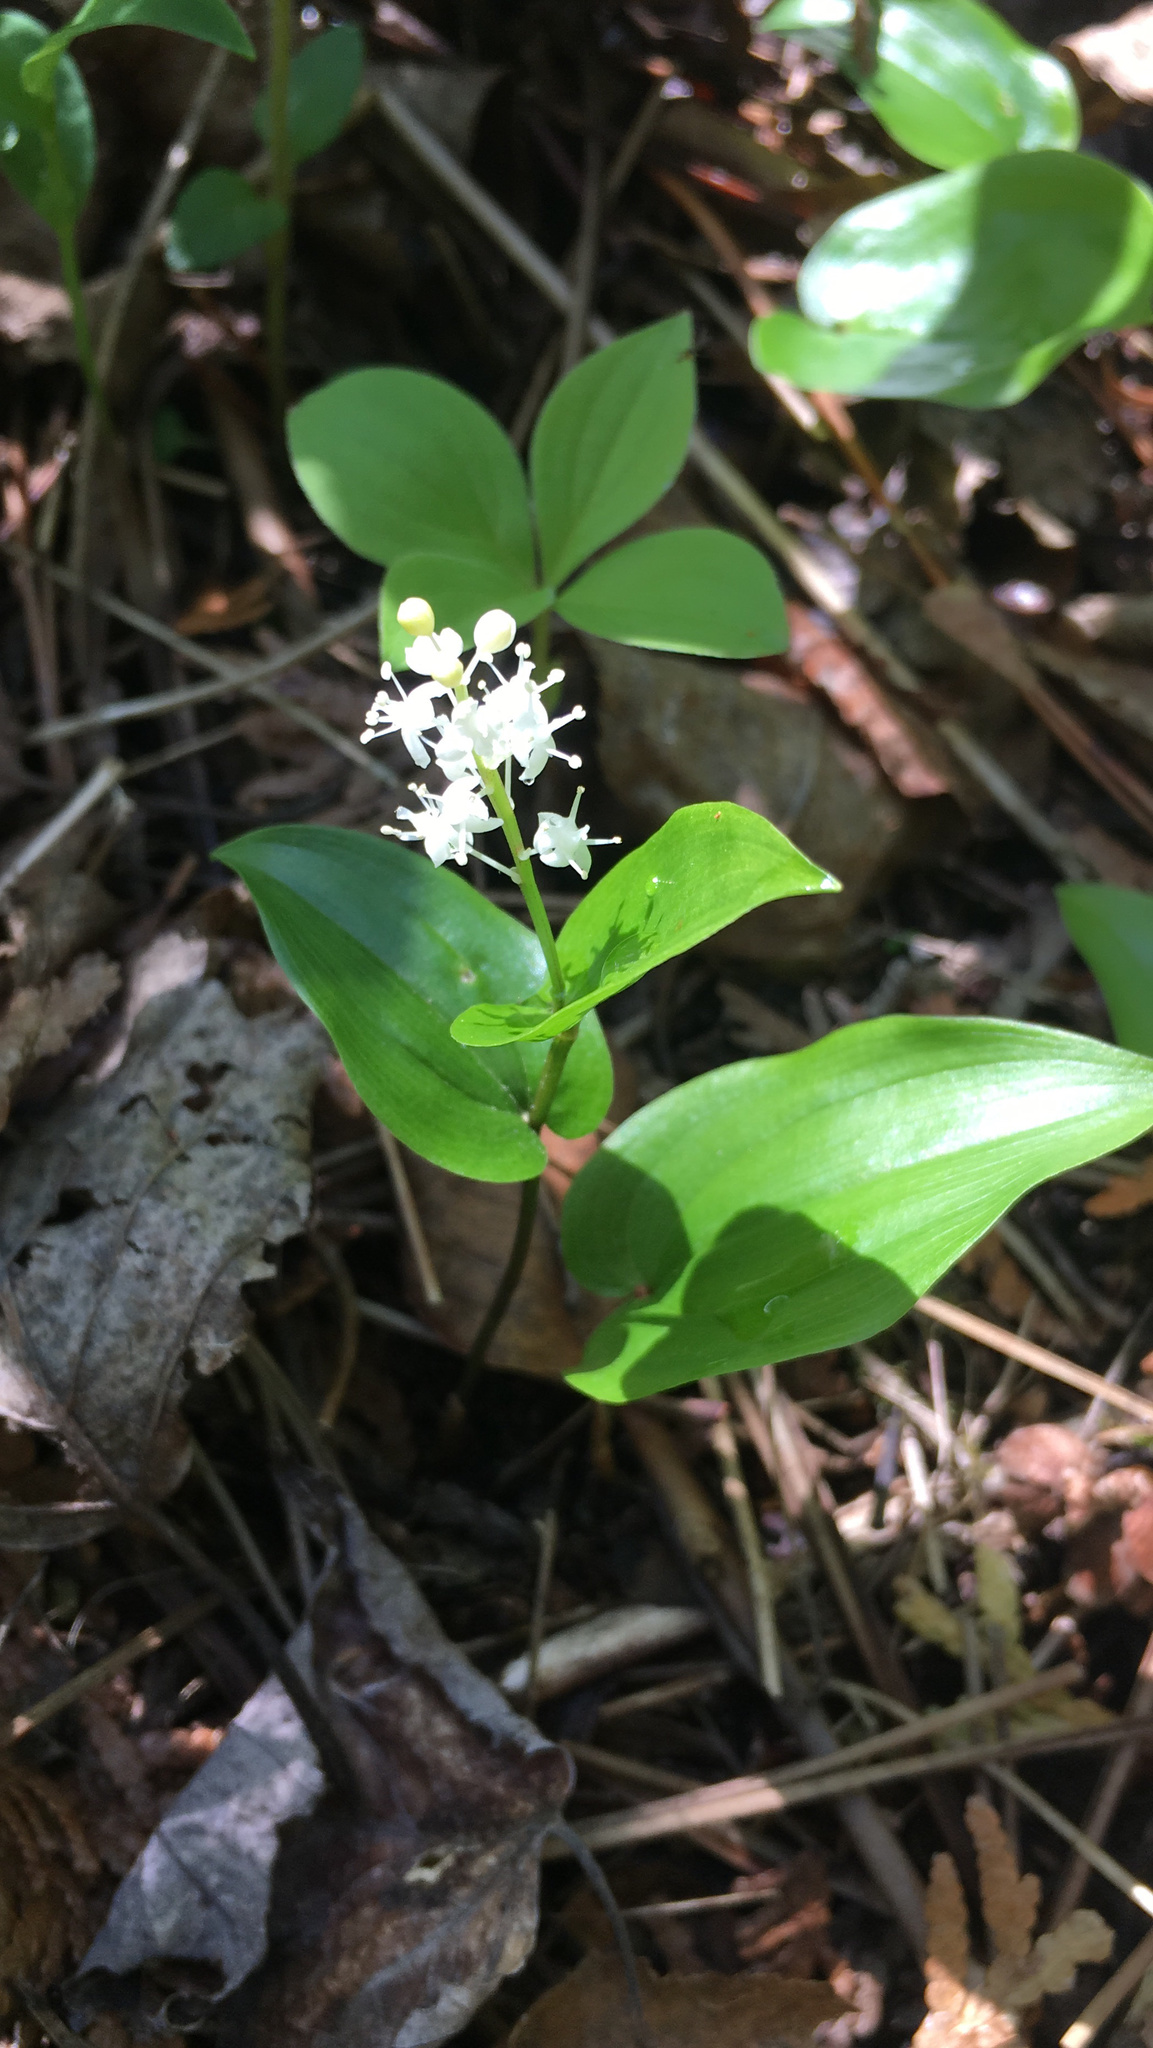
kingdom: Plantae
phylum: Tracheophyta
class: Liliopsida
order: Asparagales
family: Asparagaceae
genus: Maianthemum
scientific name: Maianthemum canadense
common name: False lily-of-the-valley
